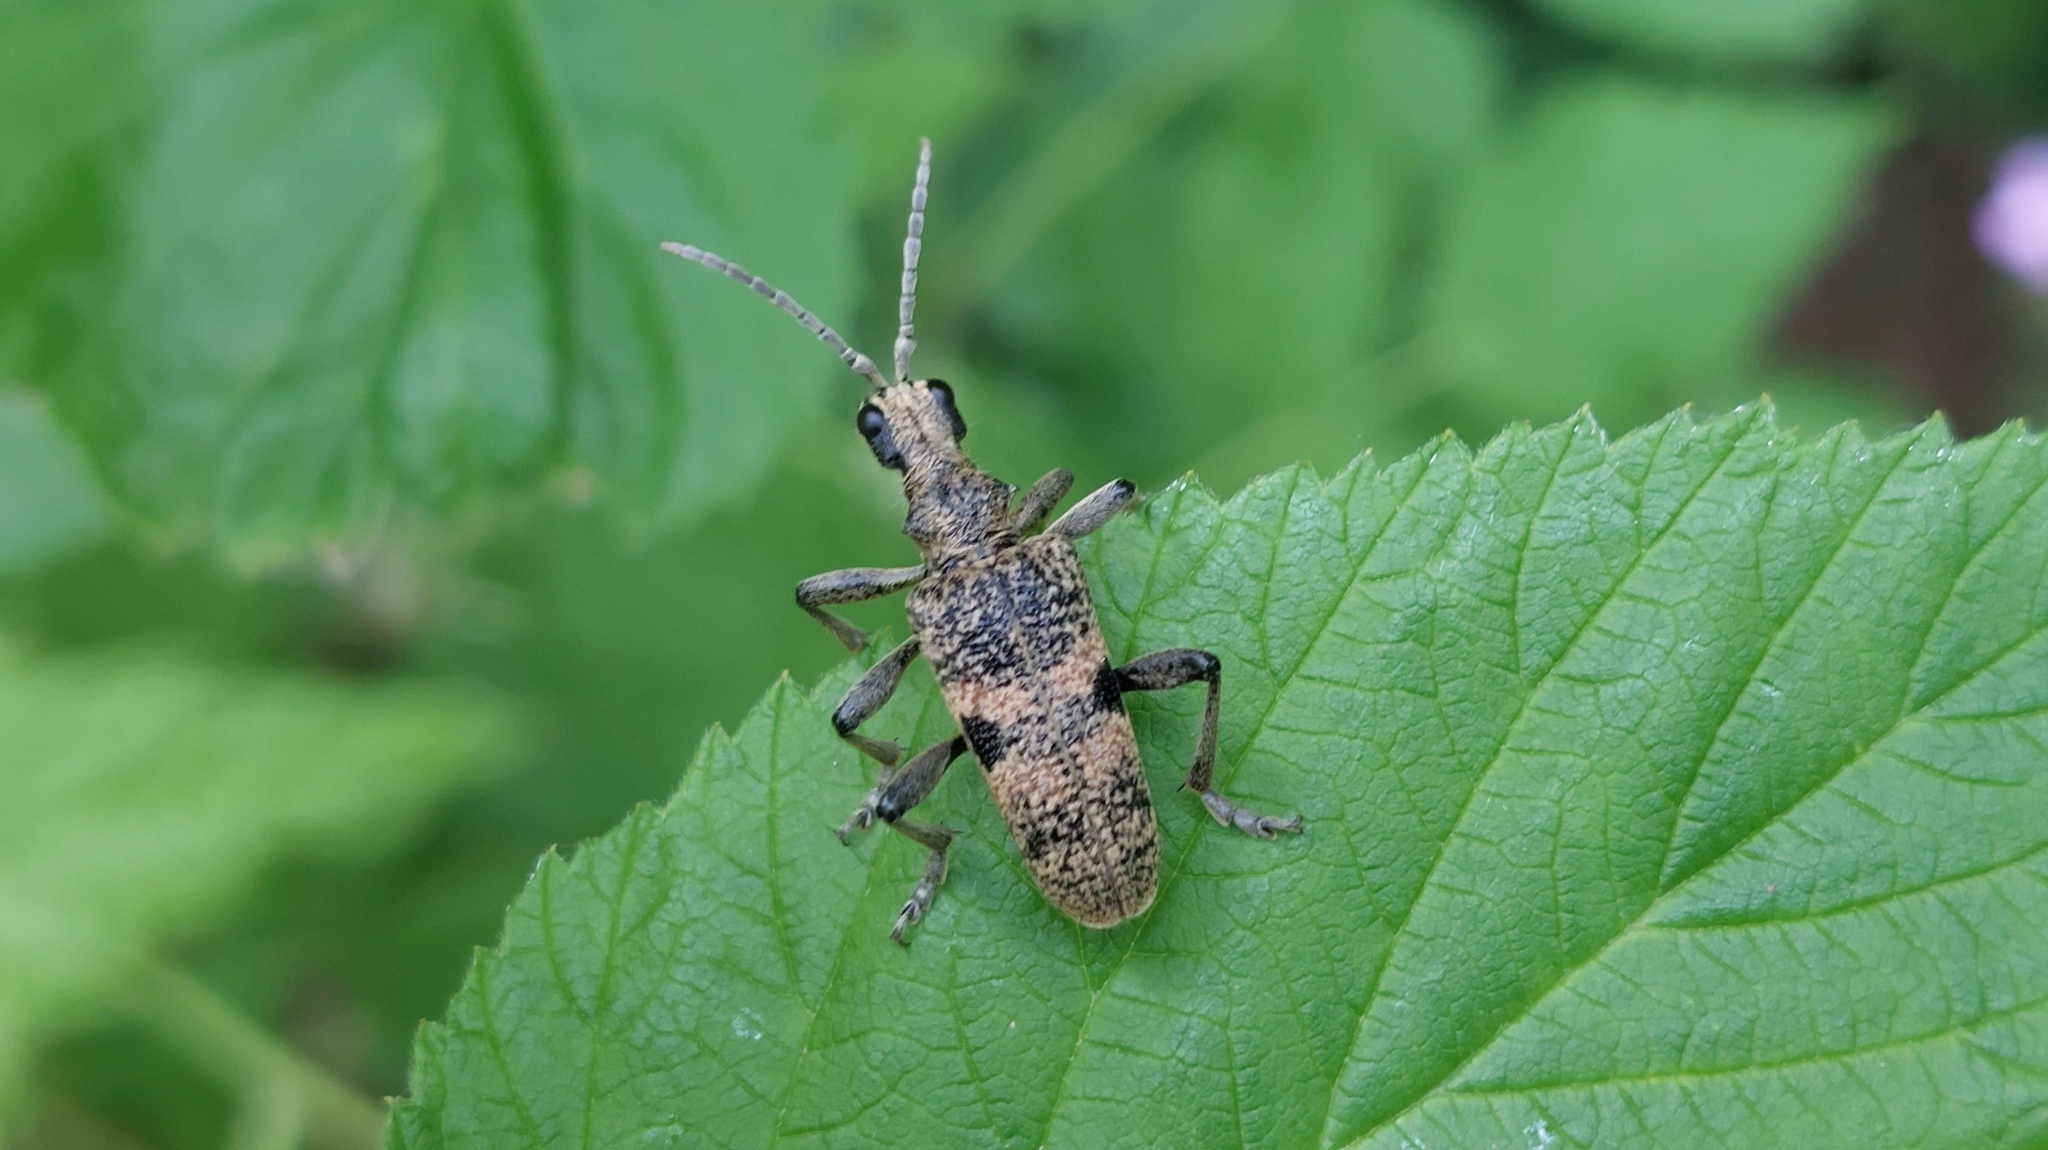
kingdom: Animalia
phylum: Arthropoda
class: Insecta
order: Coleoptera
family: Cerambycidae
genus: Rhagium
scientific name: Rhagium mordax
